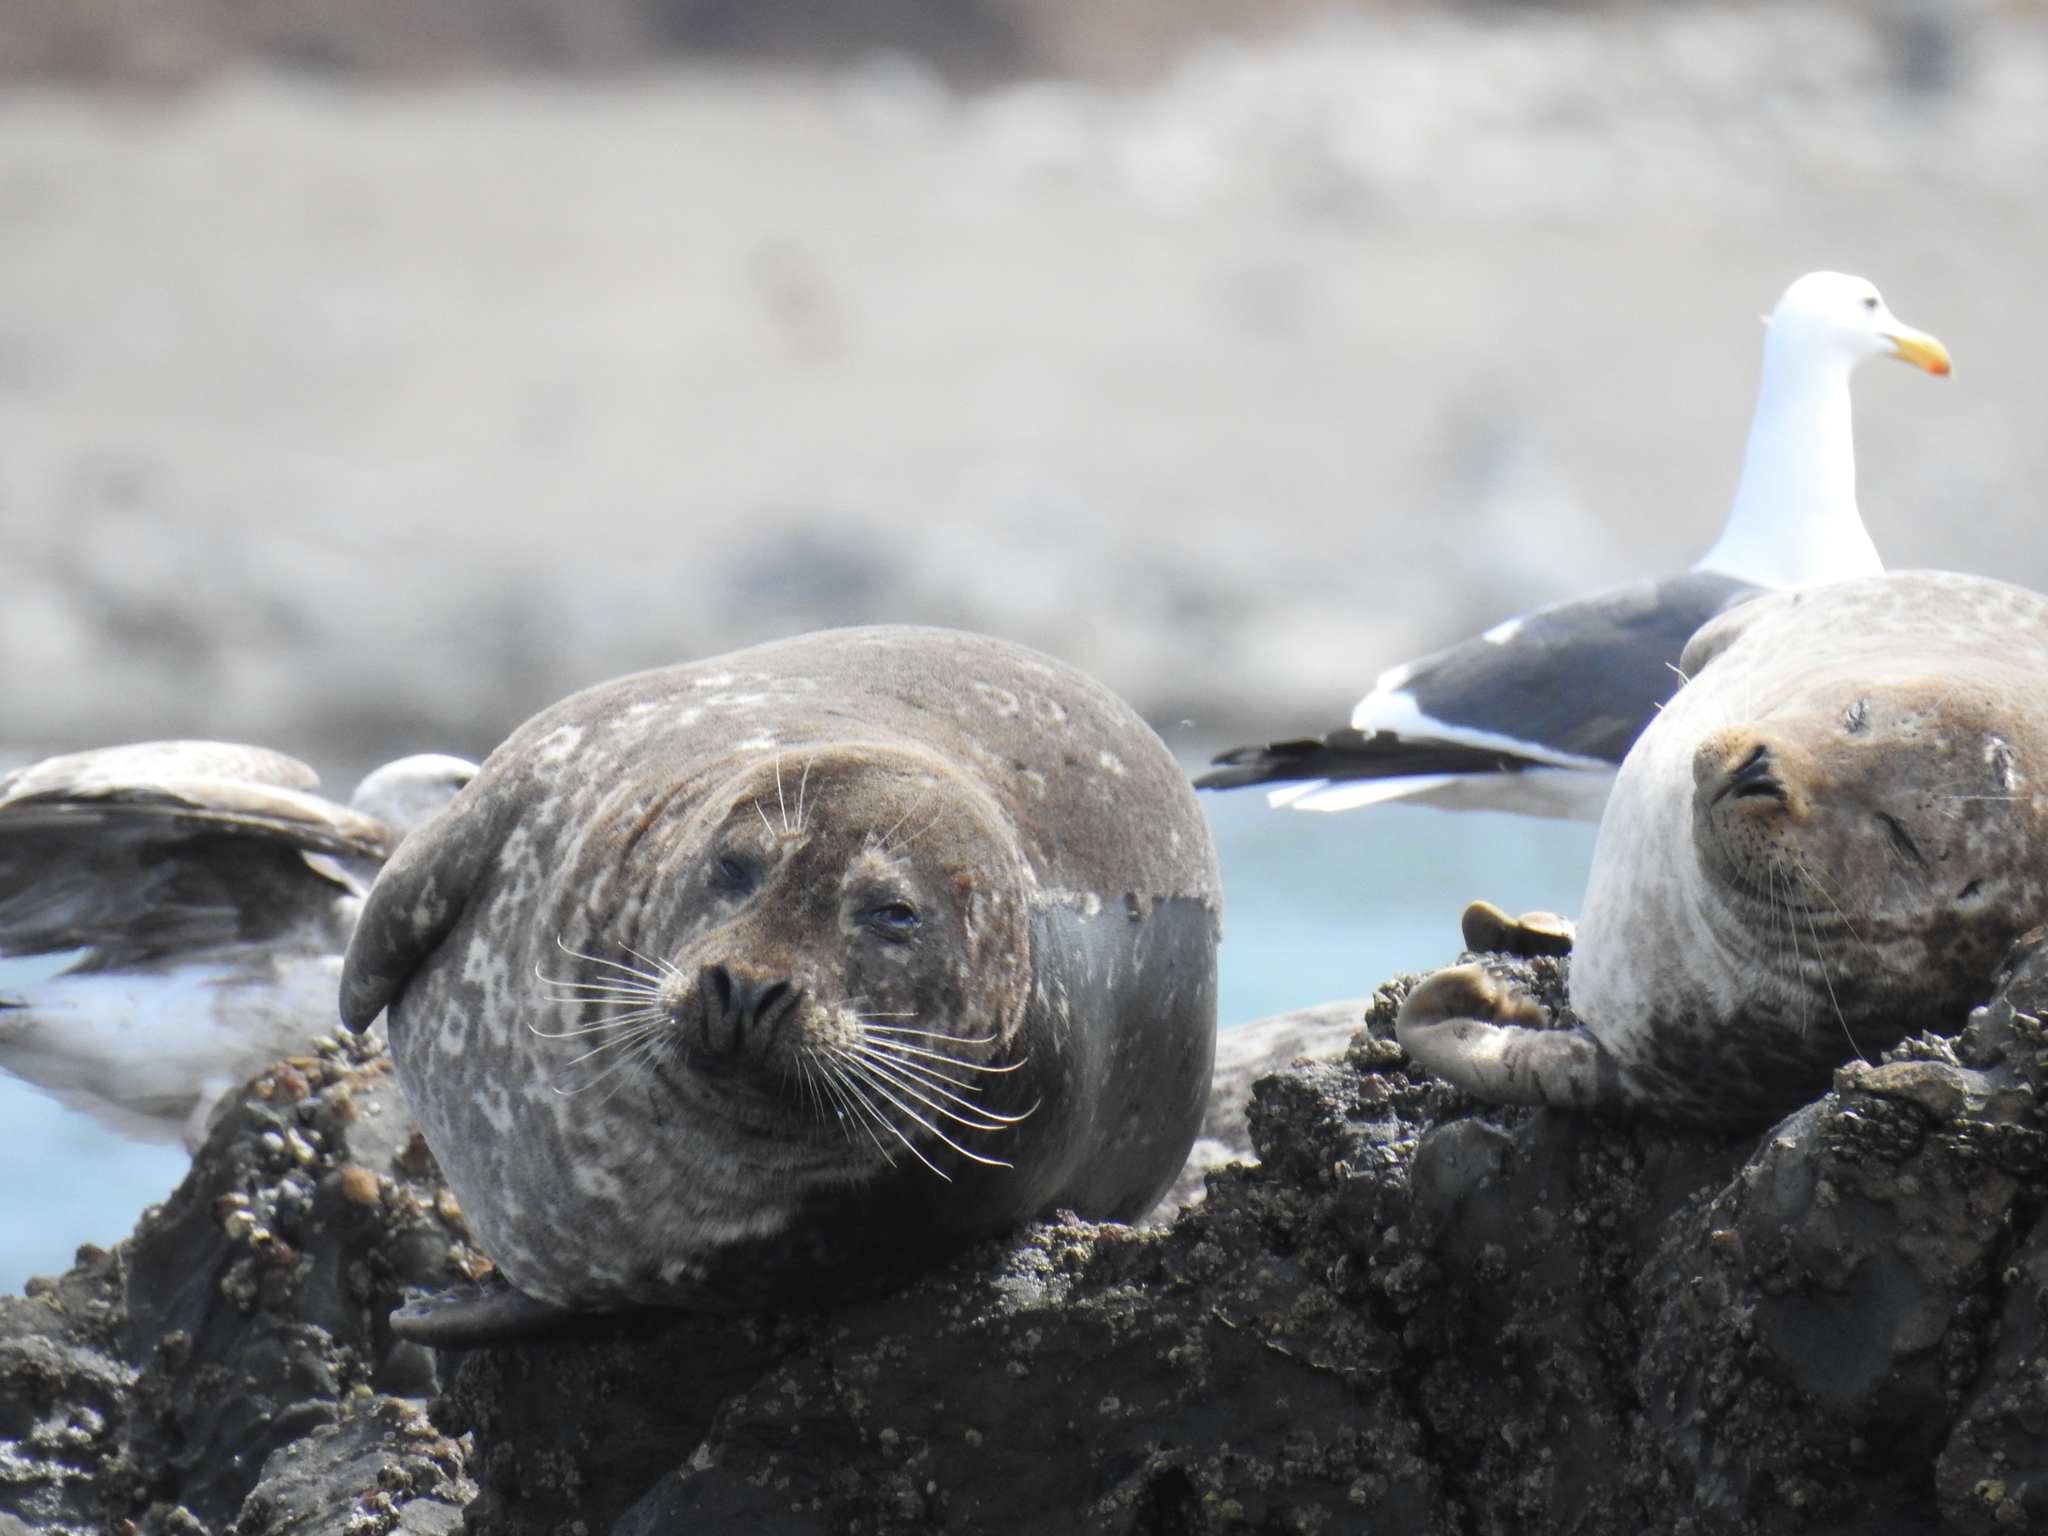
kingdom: Animalia
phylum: Chordata
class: Mammalia
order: Carnivora
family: Phocidae
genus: Phoca
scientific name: Phoca vitulina
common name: Harbor seal
